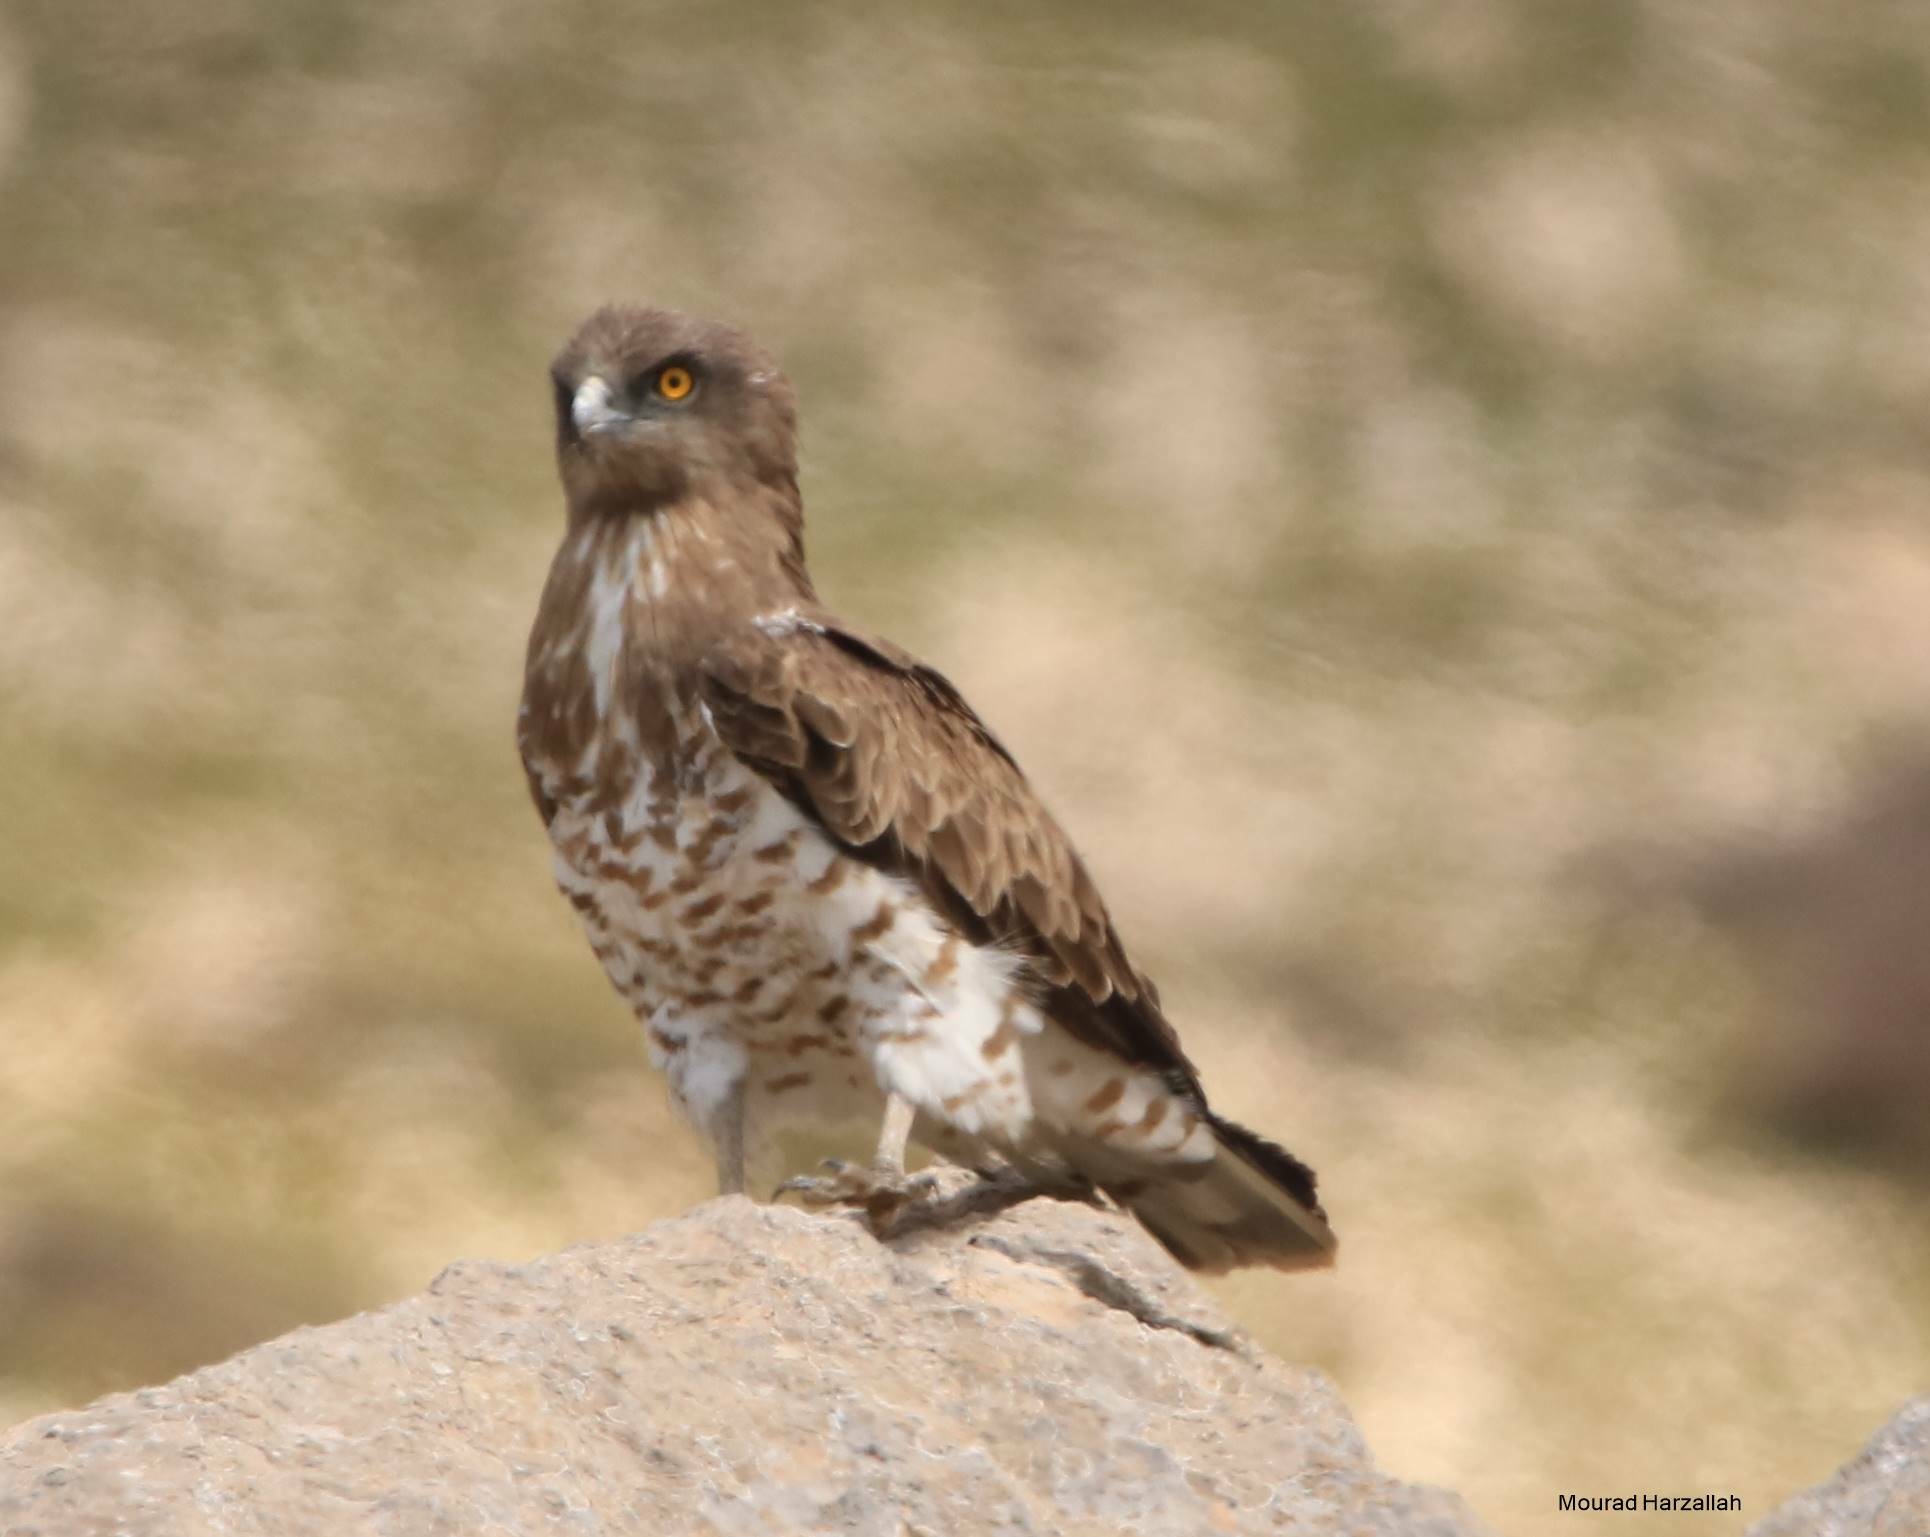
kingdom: Animalia
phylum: Chordata
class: Aves
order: Accipitriformes
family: Accipitridae
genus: Circaetus
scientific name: Circaetus gallicus
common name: Short-toed snake eagle
